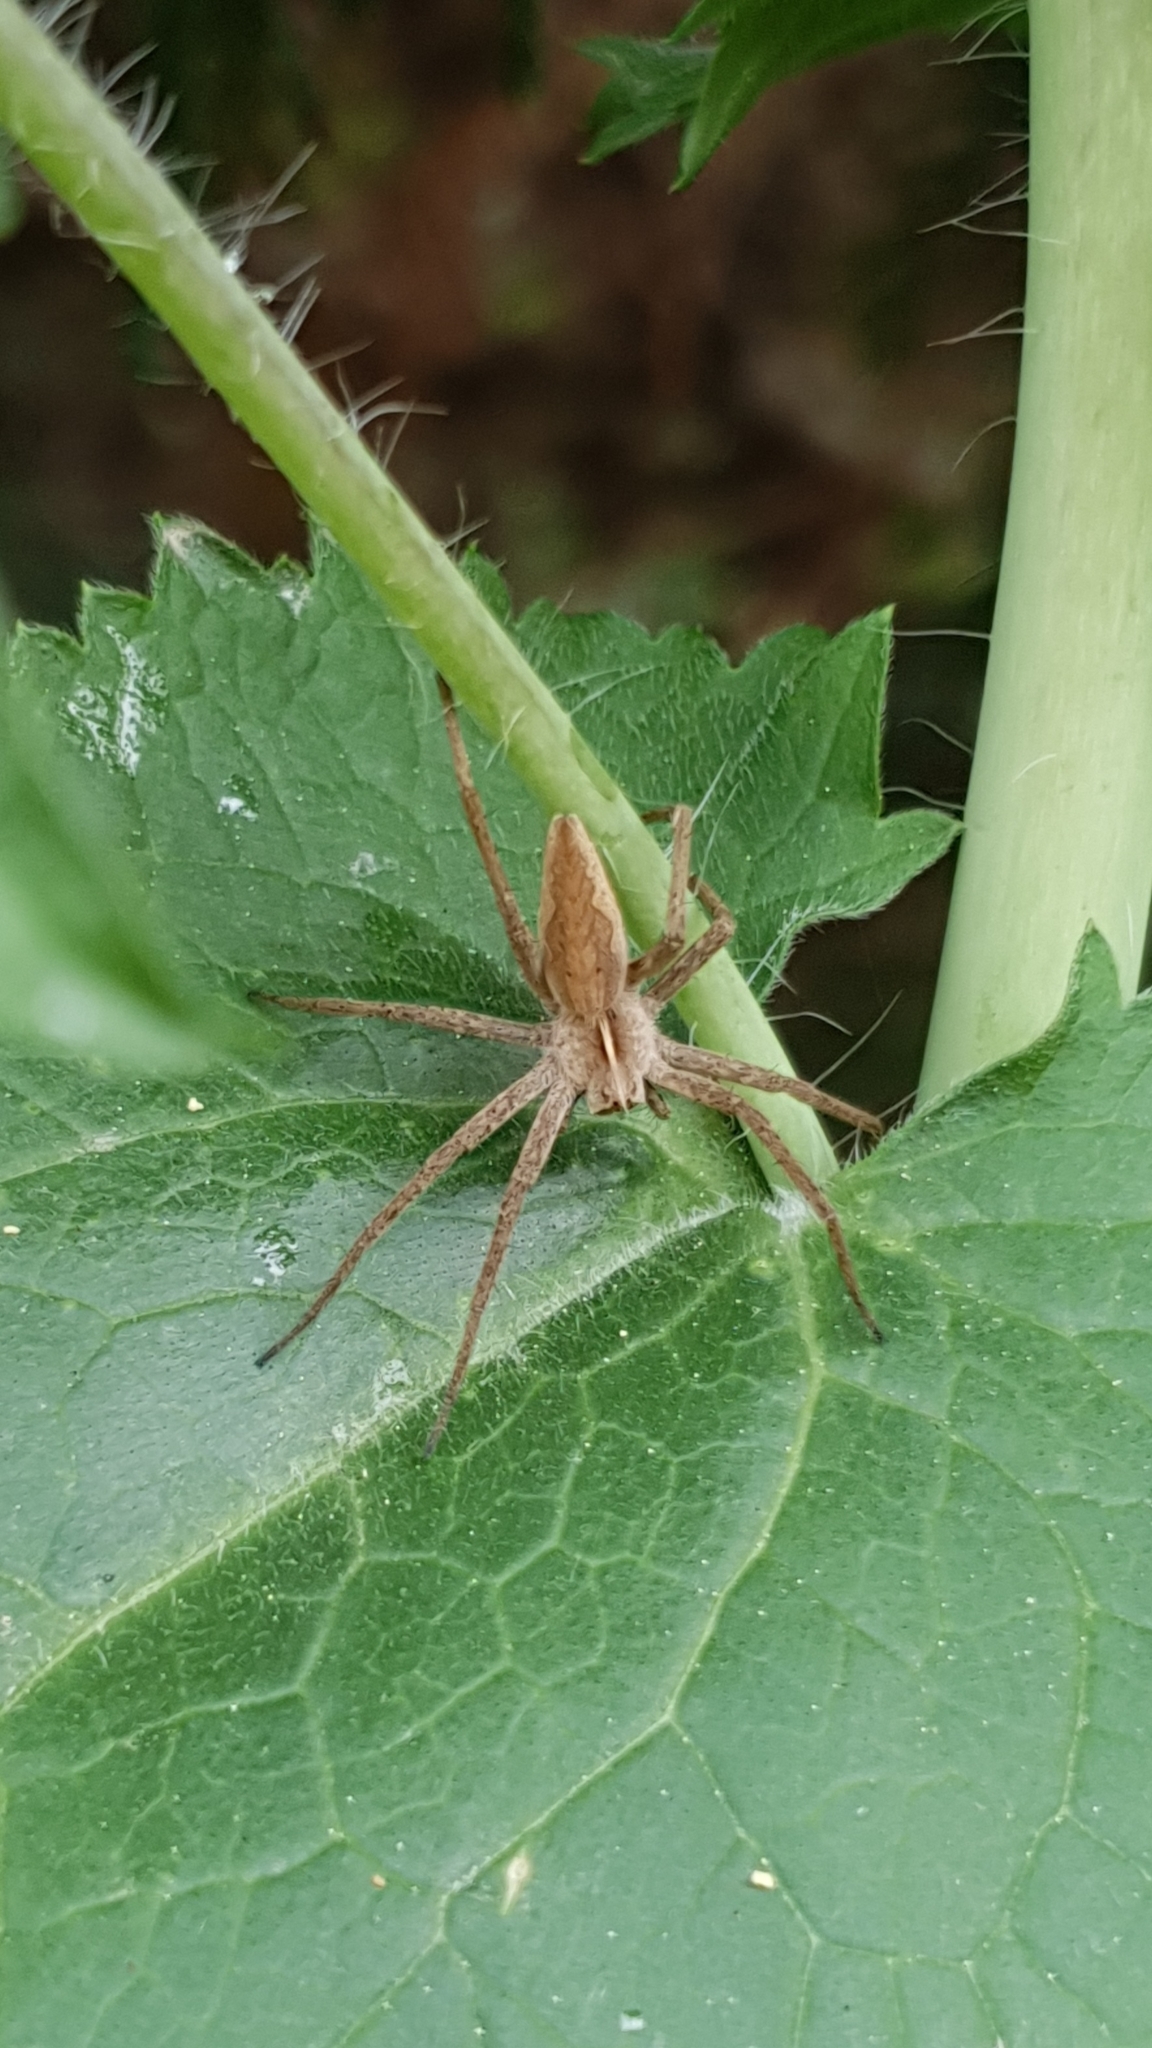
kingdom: Animalia
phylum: Arthropoda
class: Arachnida
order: Araneae
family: Pisauridae
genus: Pisaura
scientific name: Pisaura mirabilis
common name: Tent spider
